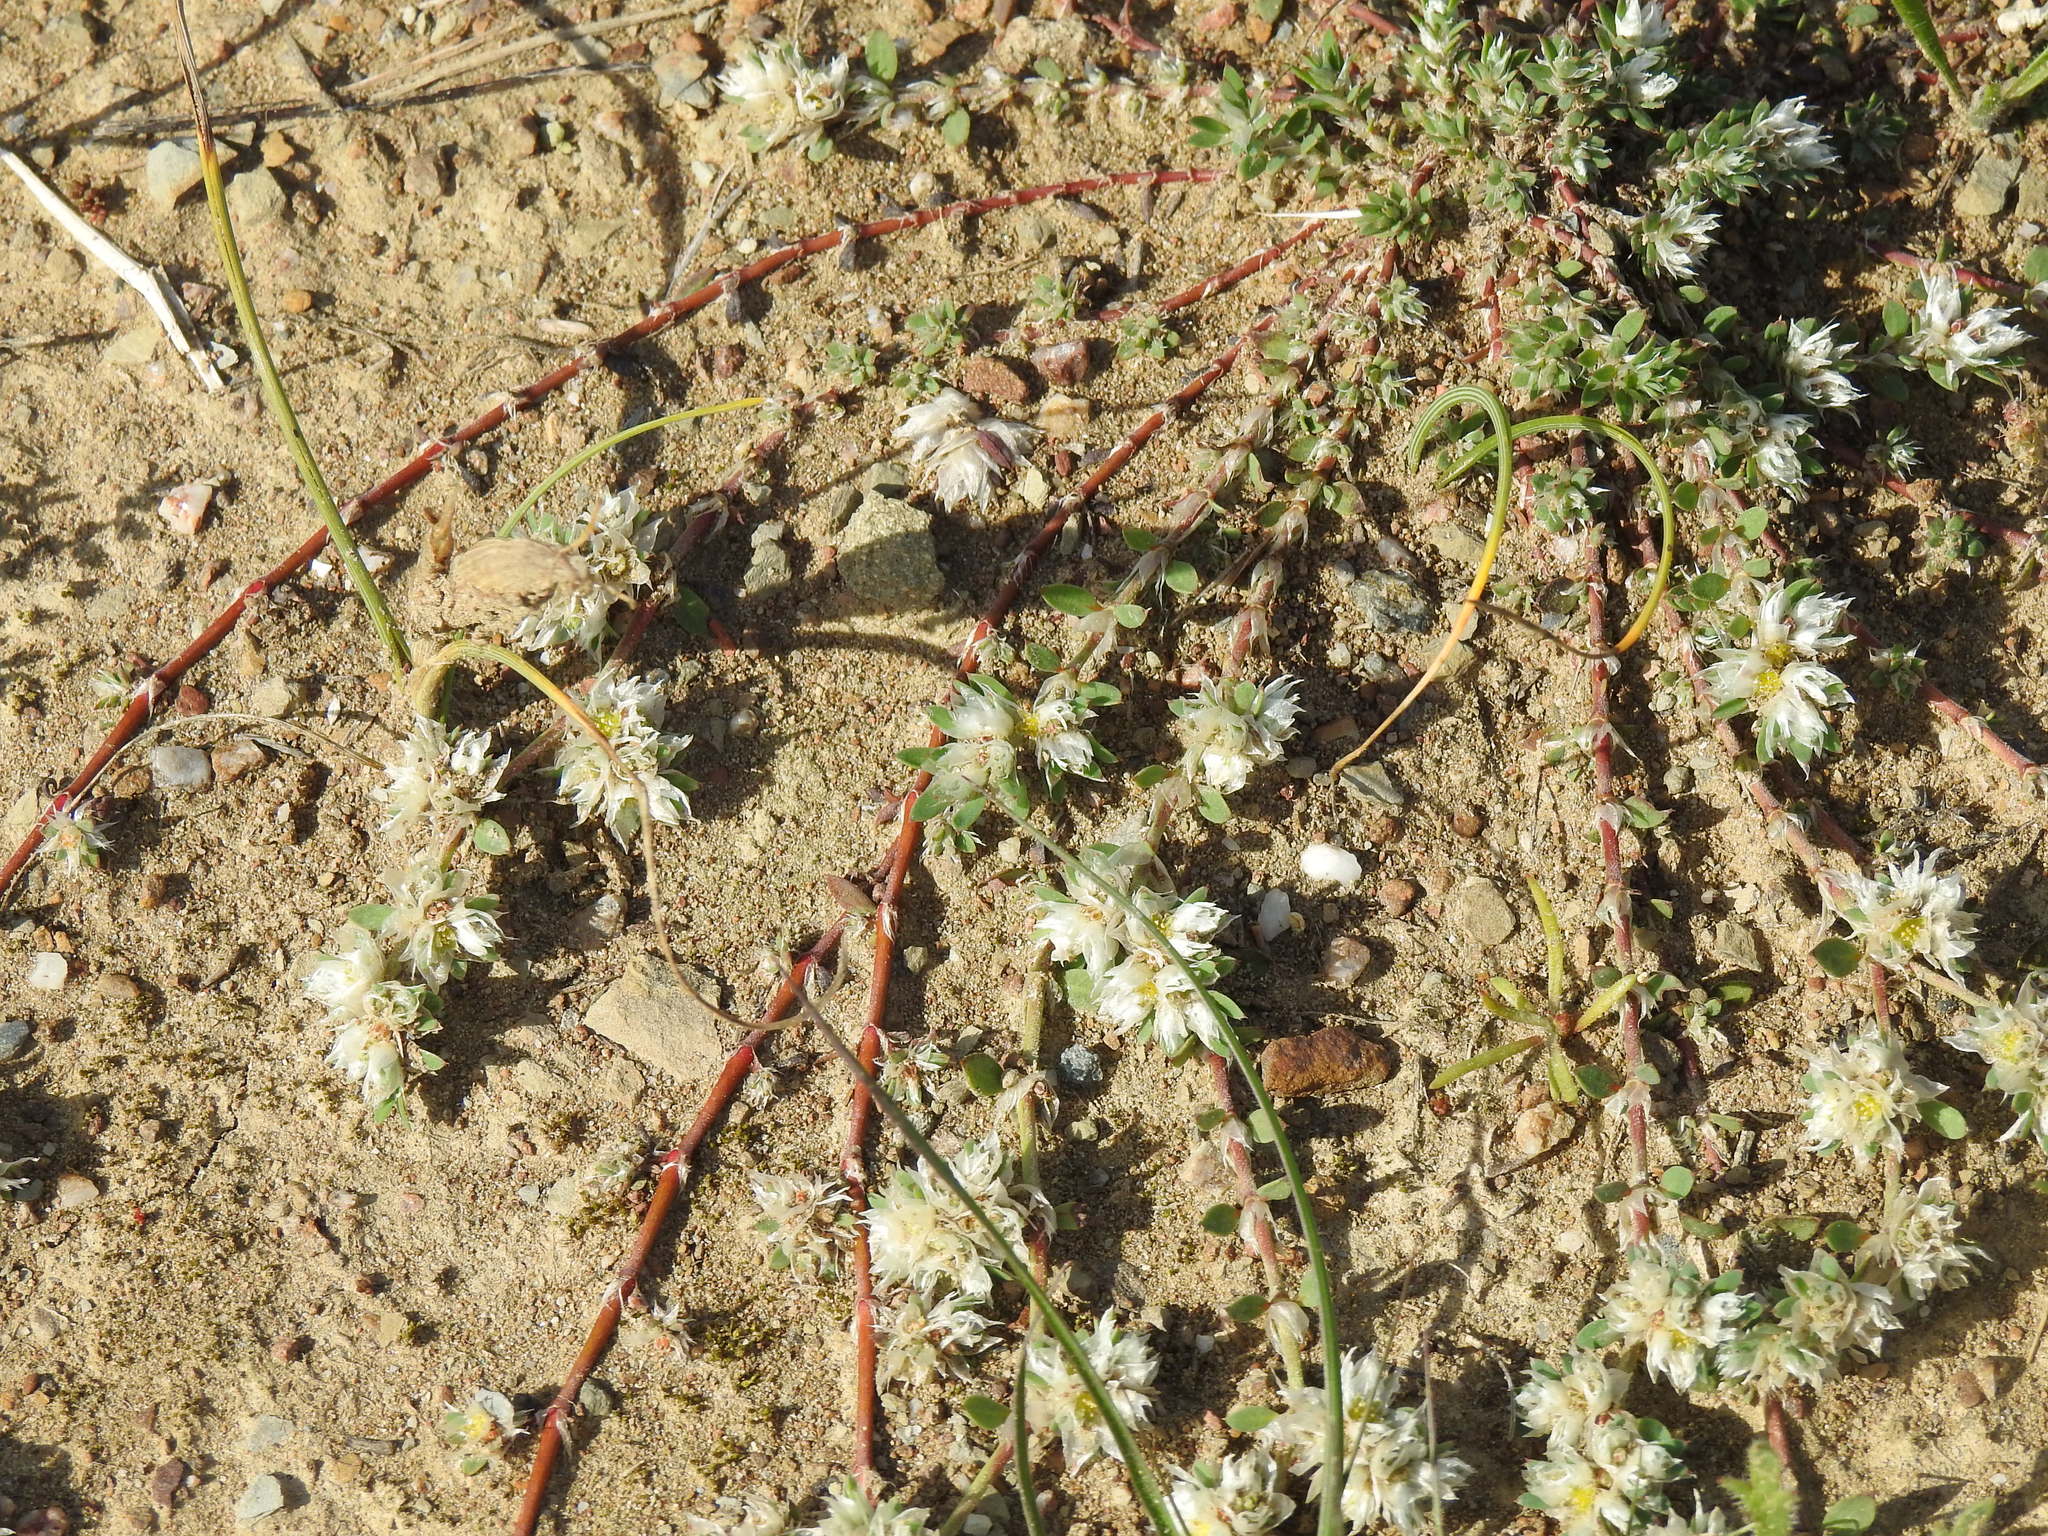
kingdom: Plantae
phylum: Tracheophyta
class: Magnoliopsida
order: Caryophyllales
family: Caryophyllaceae
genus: Paronychia
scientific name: Paronychia argentea
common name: Silver nailroot
